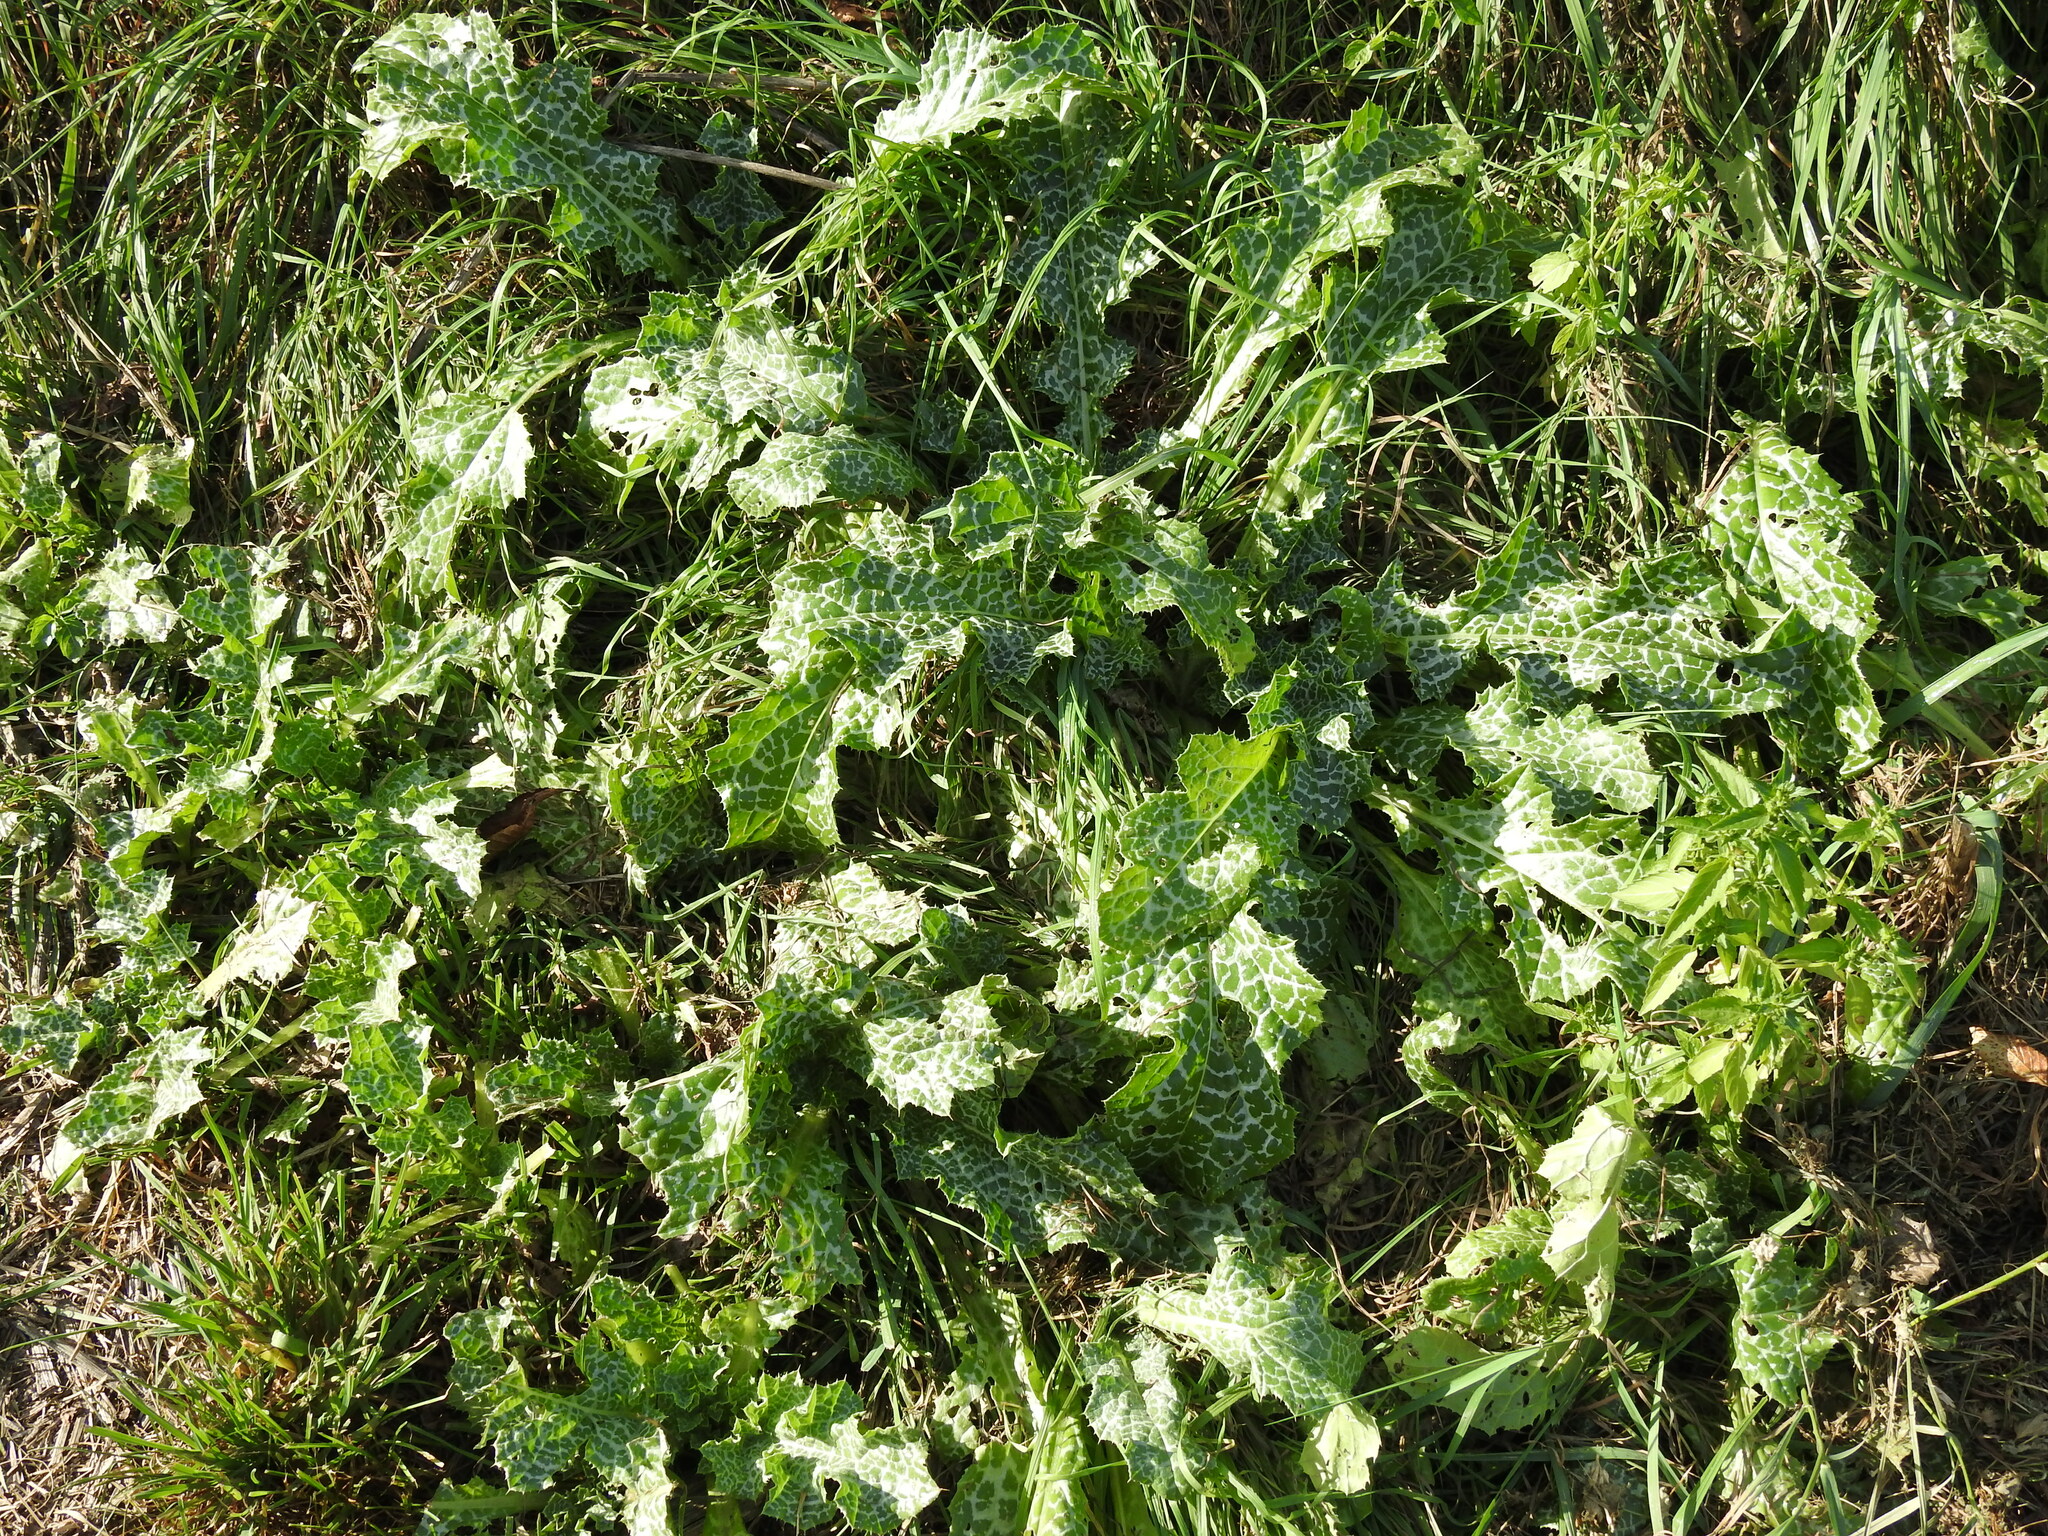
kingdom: Plantae
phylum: Tracheophyta
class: Magnoliopsida
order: Asterales
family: Asteraceae
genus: Silybum
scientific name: Silybum marianum
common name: Milk thistle
